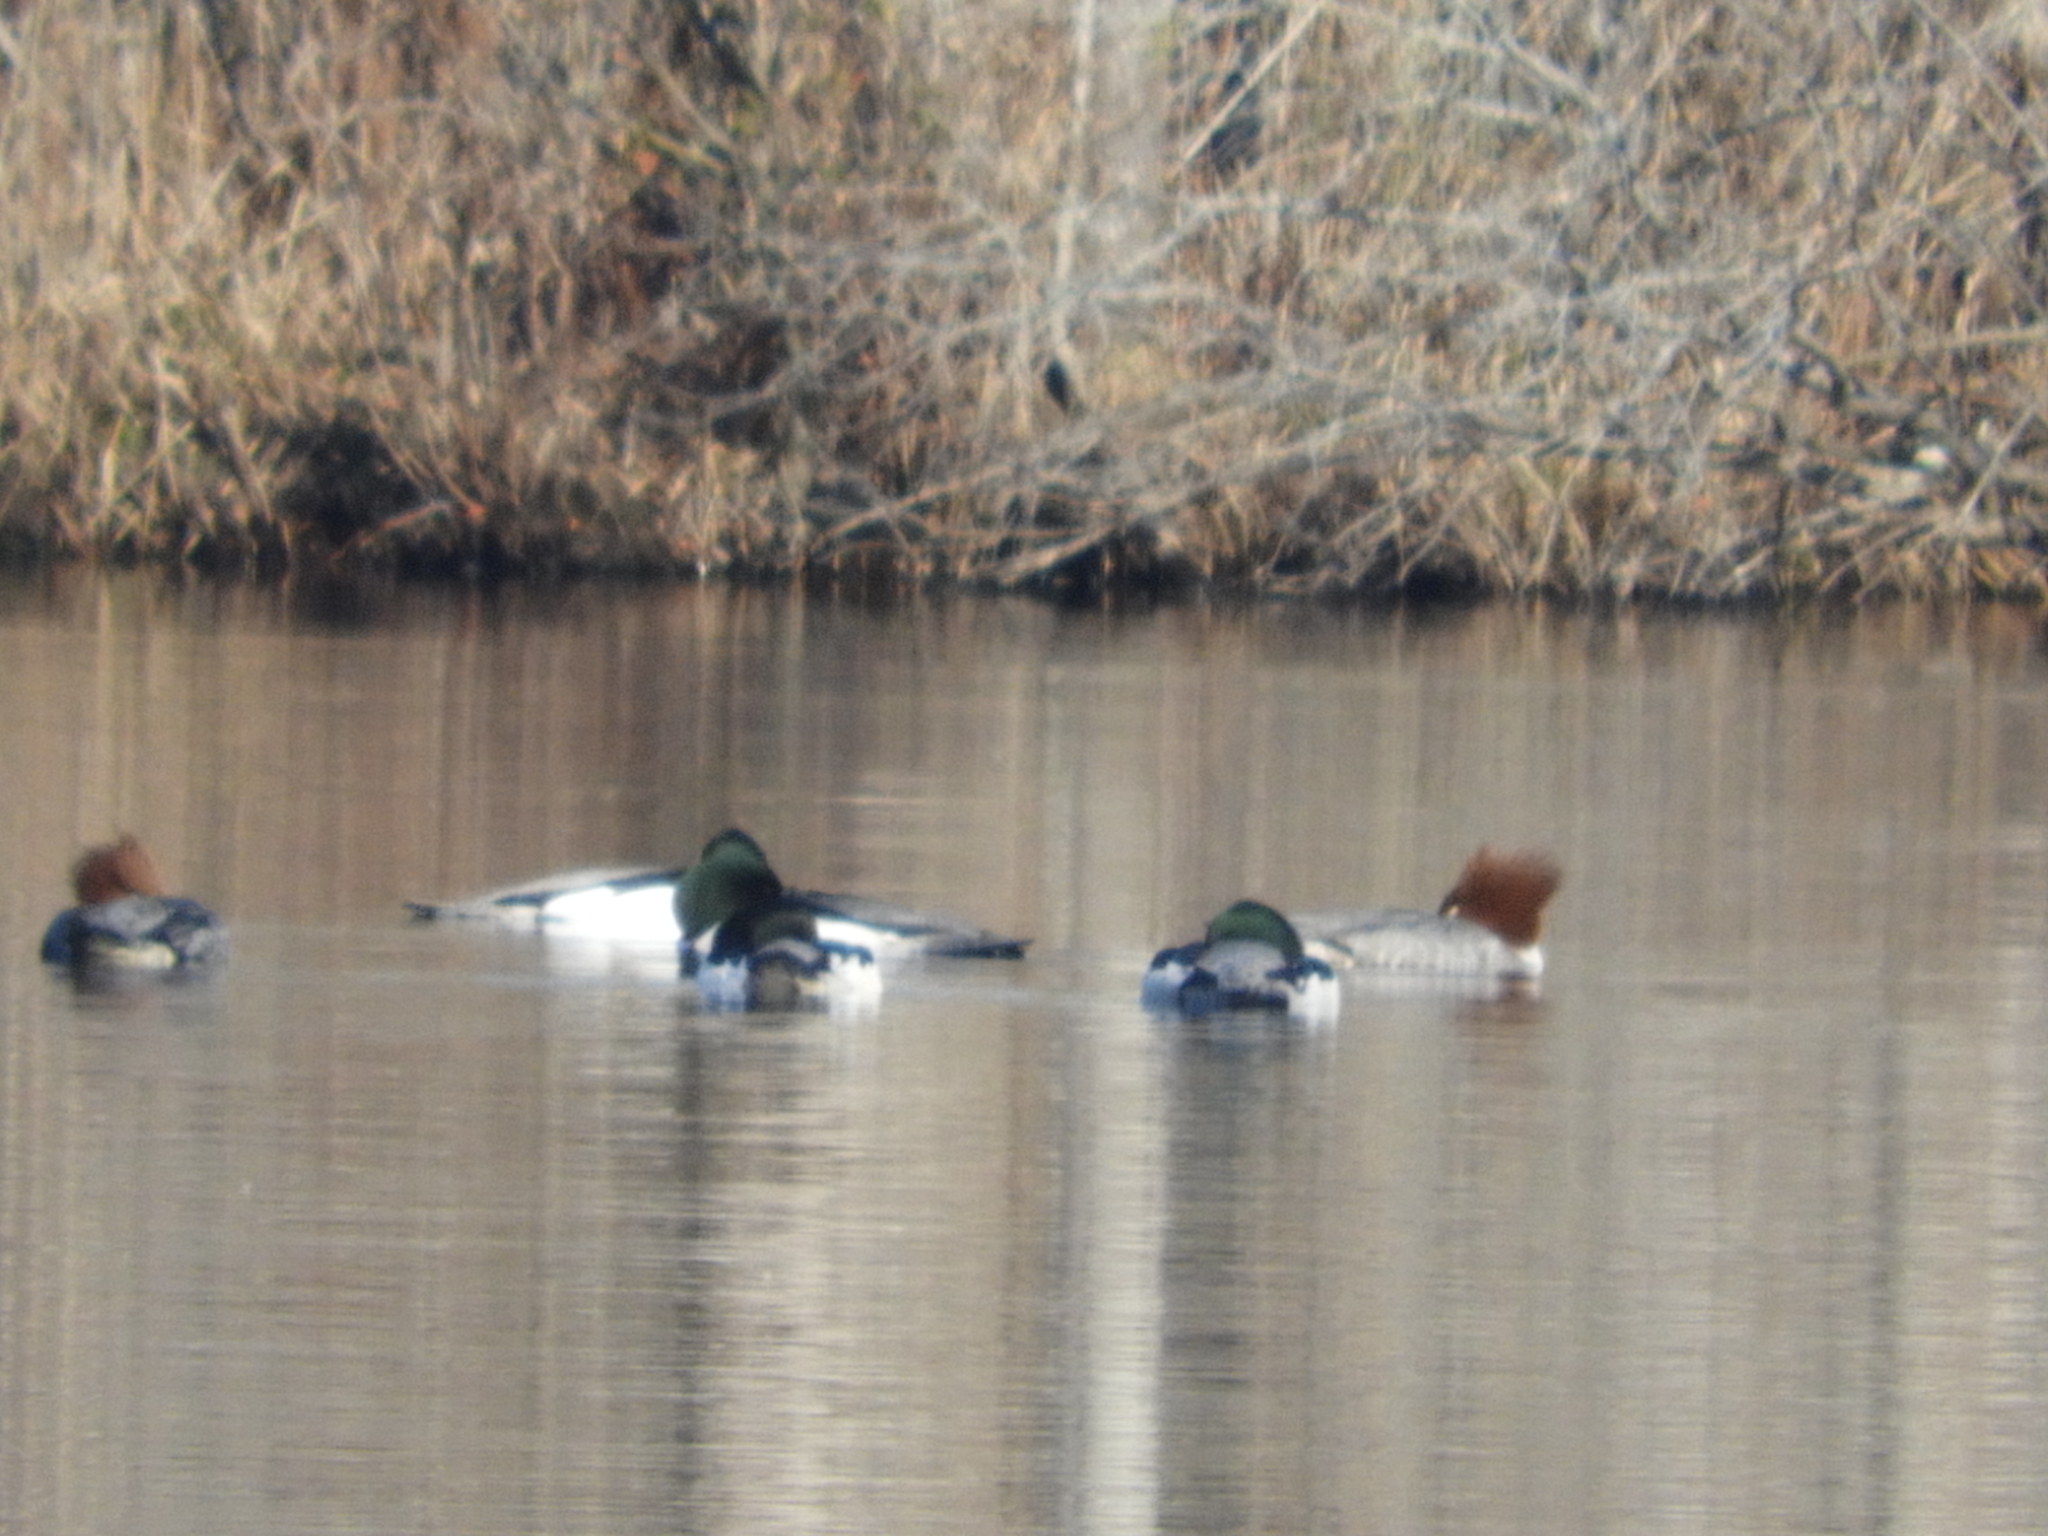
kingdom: Animalia
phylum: Chordata
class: Aves
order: Anseriformes
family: Anatidae
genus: Mergus
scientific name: Mergus merganser
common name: Common merganser
